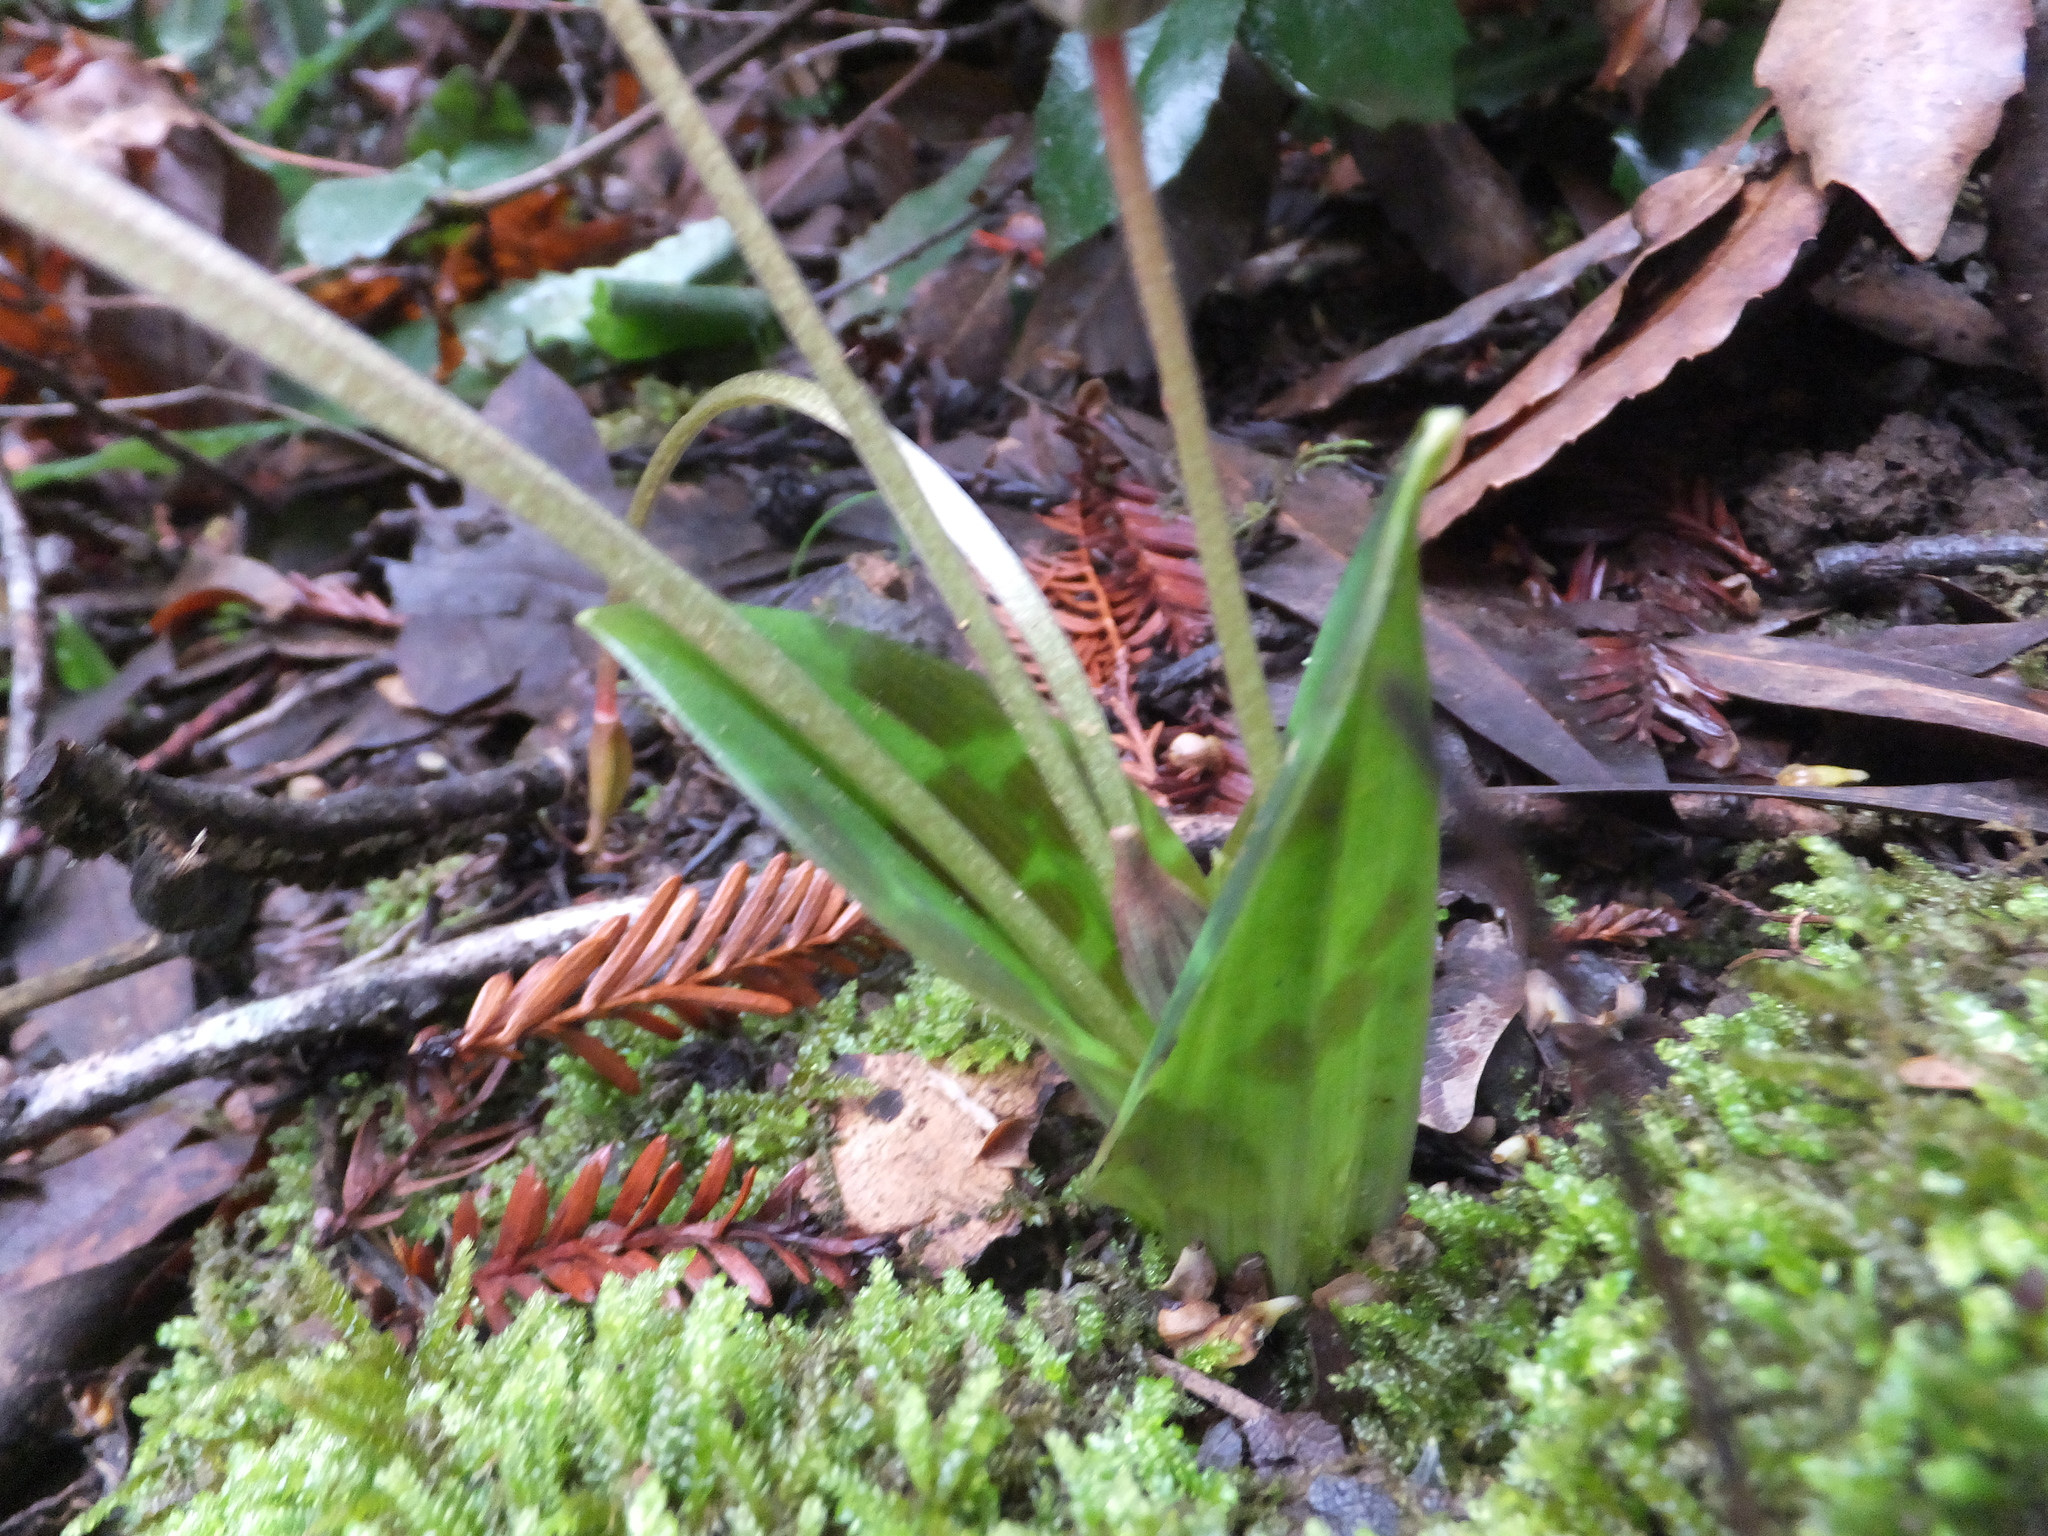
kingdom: Plantae
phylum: Tracheophyta
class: Liliopsida
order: Liliales
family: Liliaceae
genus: Scoliopus
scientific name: Scoliopus bigelovii
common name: Foetid adder's-tongue
